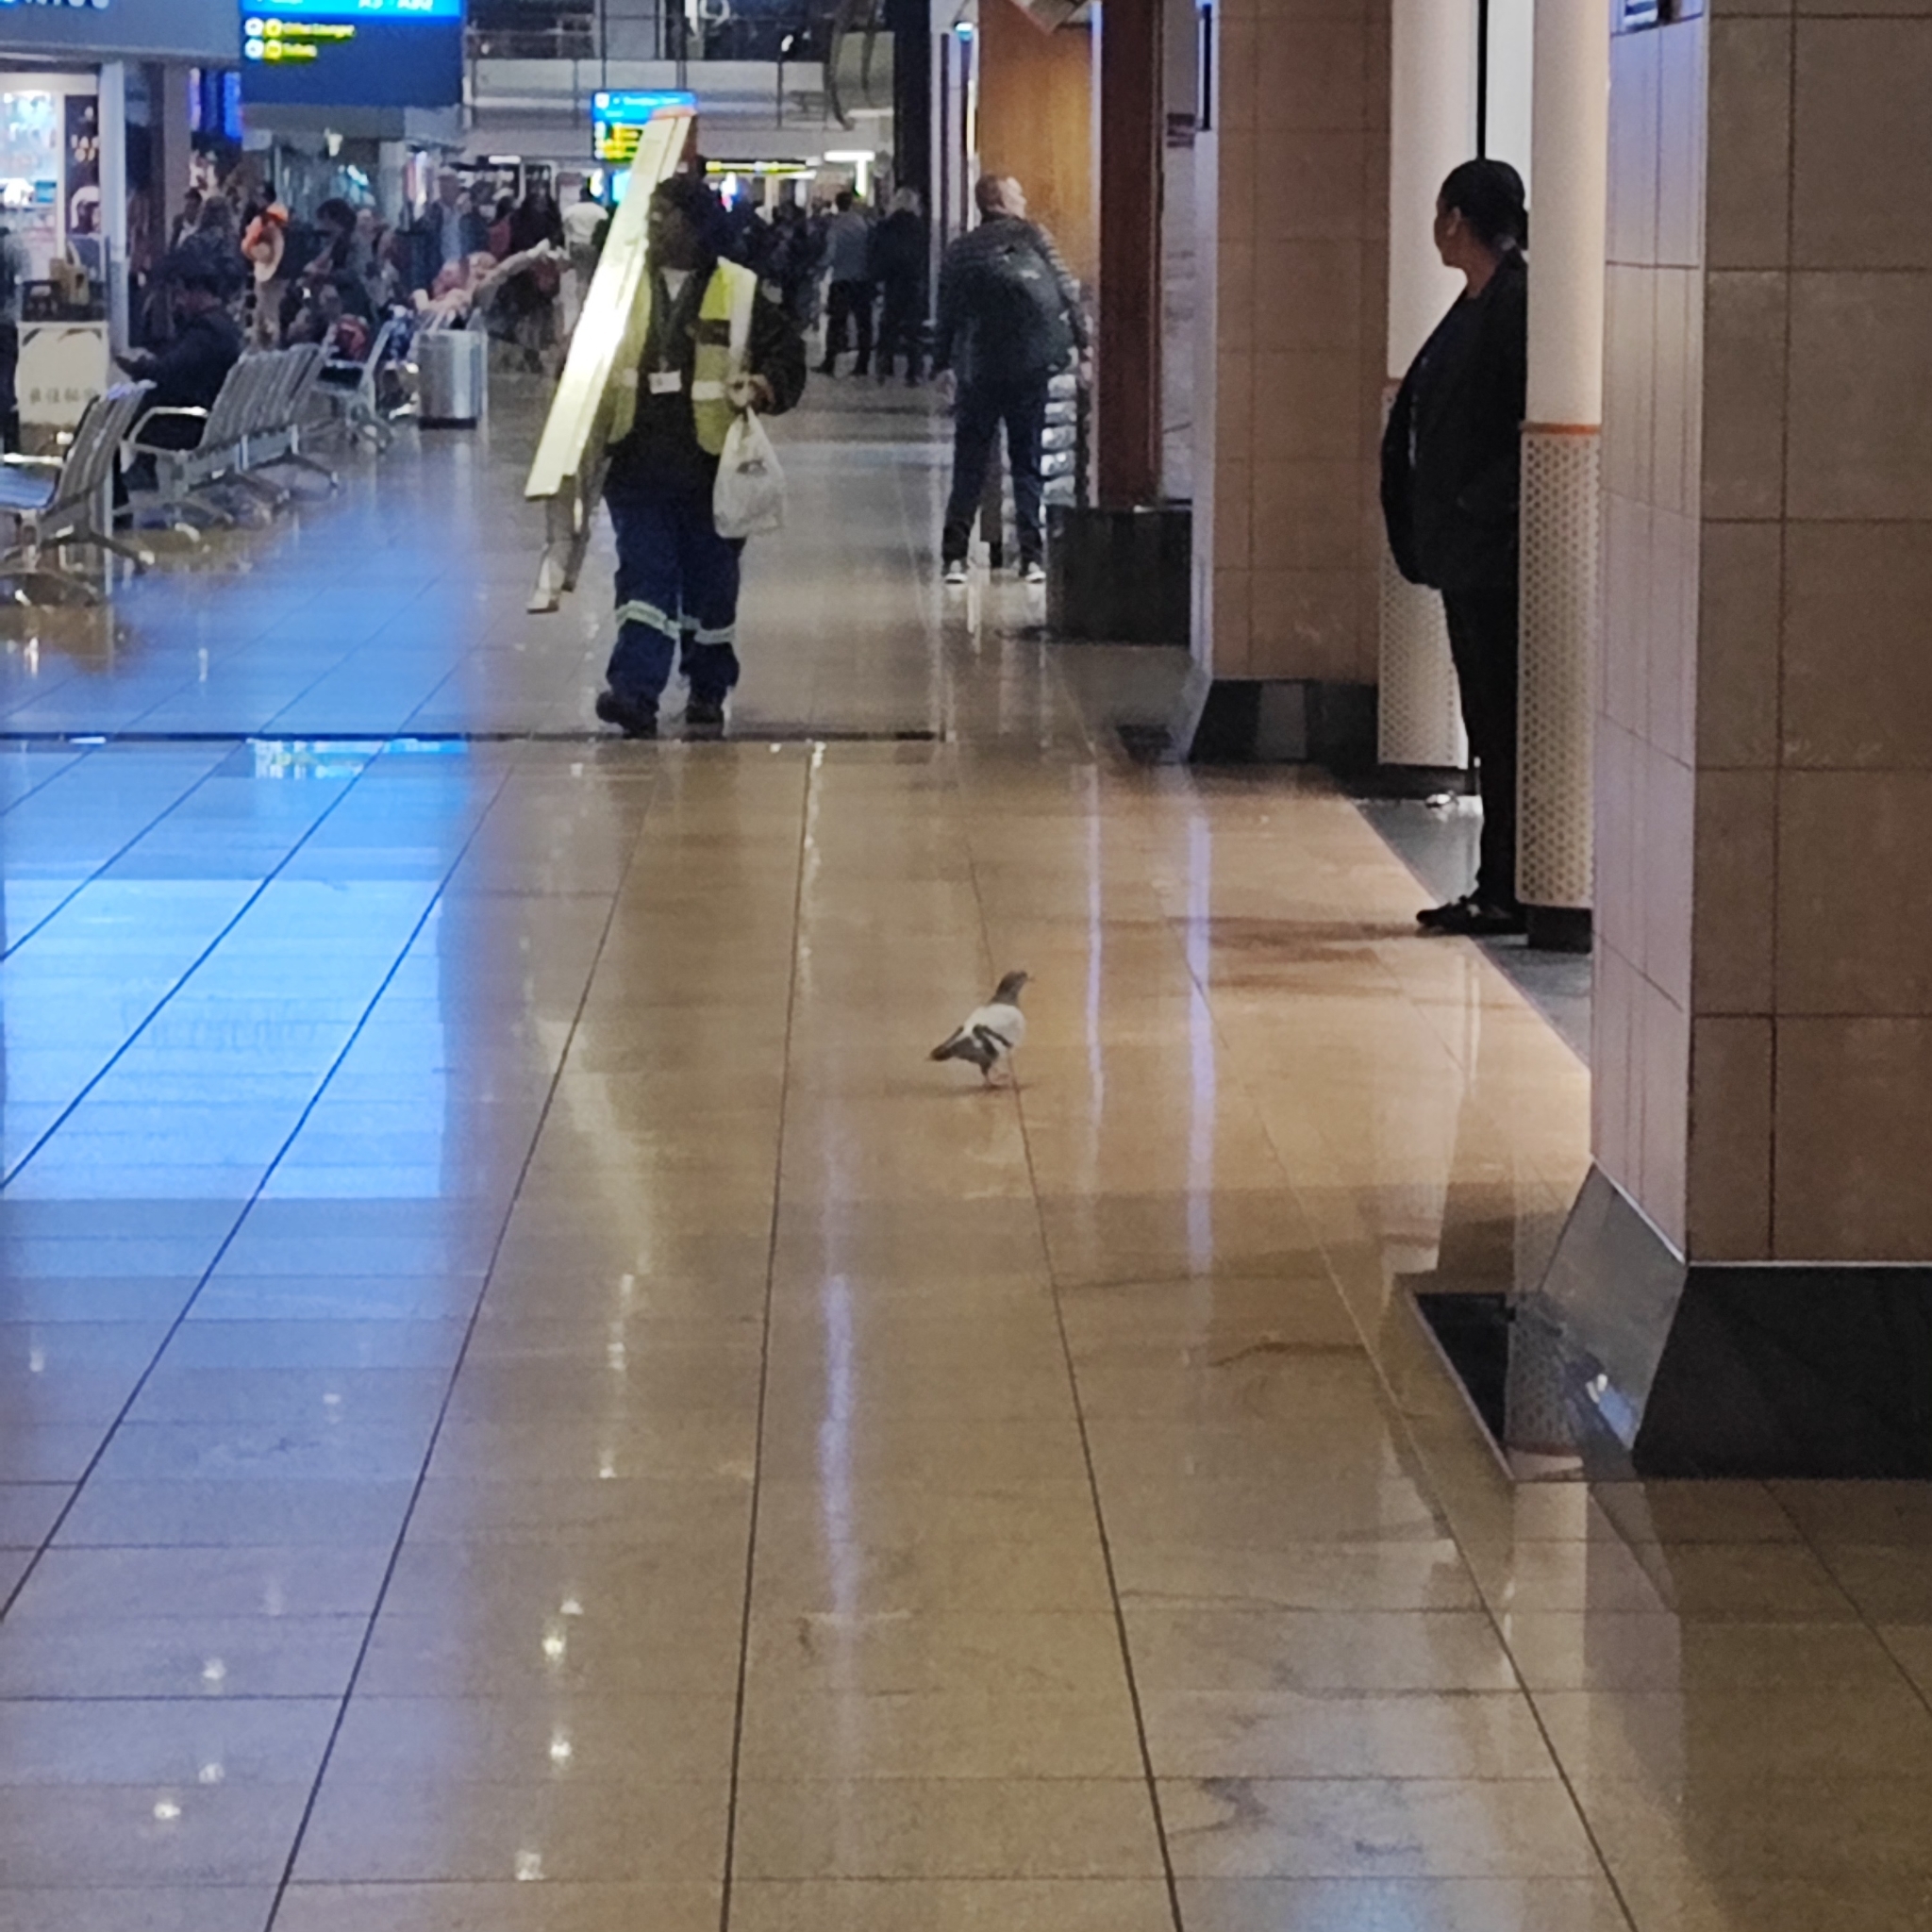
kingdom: Animalia
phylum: Chordata
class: Aves
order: Columbiformes
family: Columbidae
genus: Columba
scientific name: Columba livia
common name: Rock pigeon
